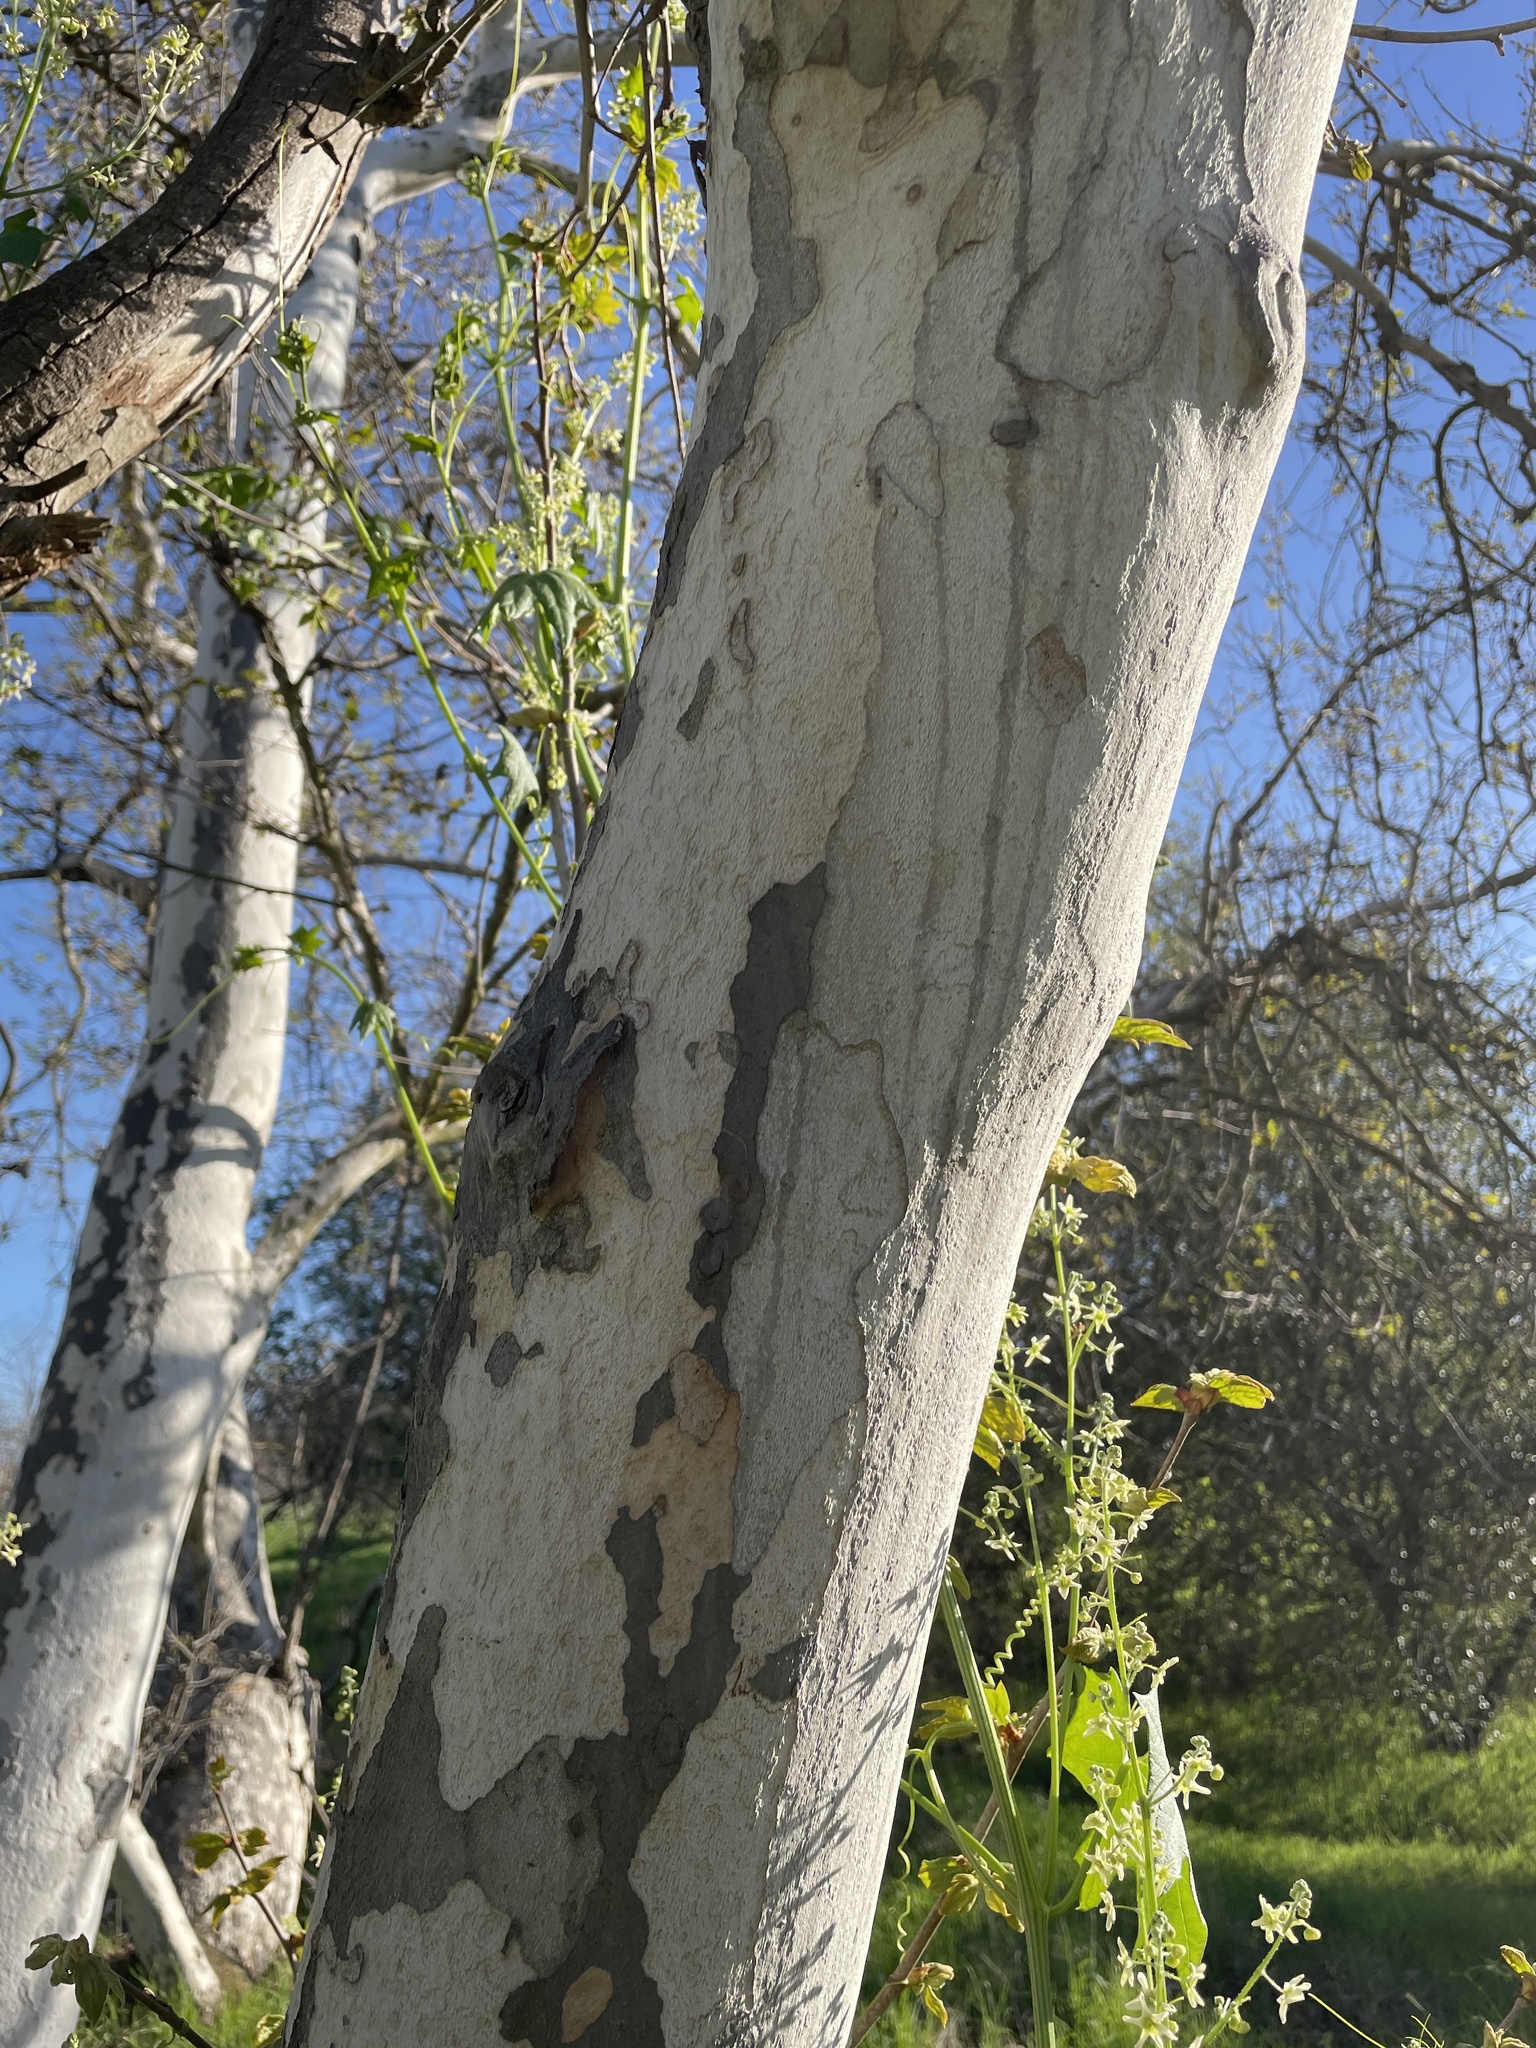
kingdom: Plantae
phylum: Tracheophyta
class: Magnoliopsida
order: Proteales
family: Platanaceae
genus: Platanus
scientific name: Platanus racemosa
